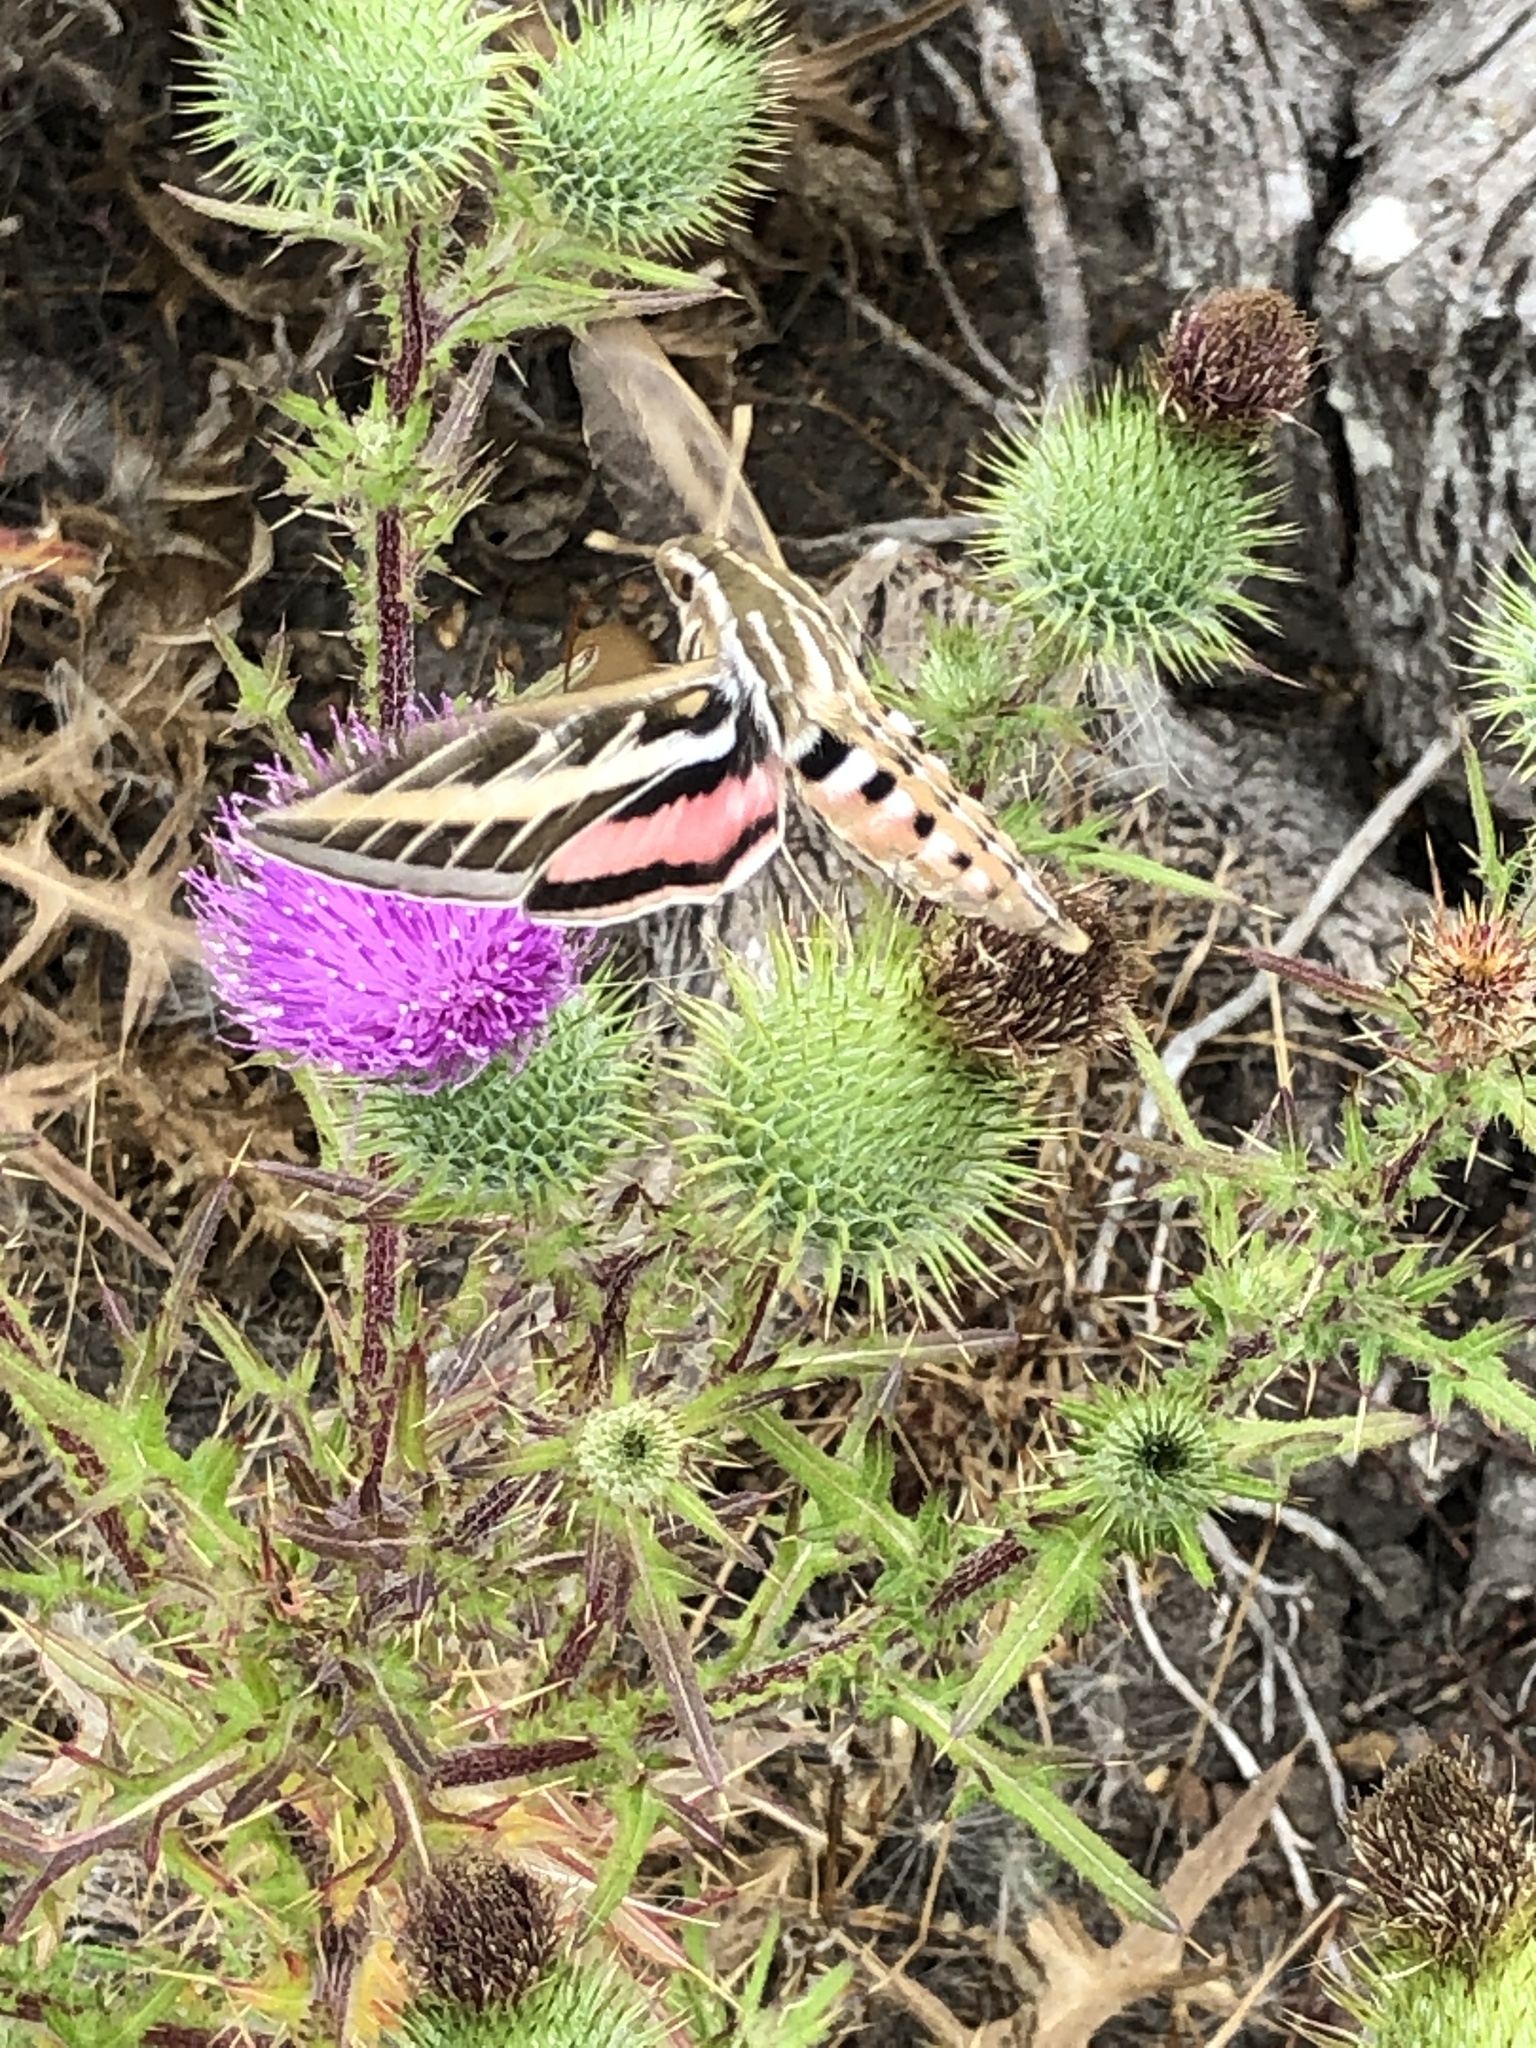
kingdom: Animalia
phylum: Arthropoda
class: Insecta
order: Lepidoptera
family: Sphingidae
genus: Hyles
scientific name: Hyles lineata
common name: White-lined sphinx
